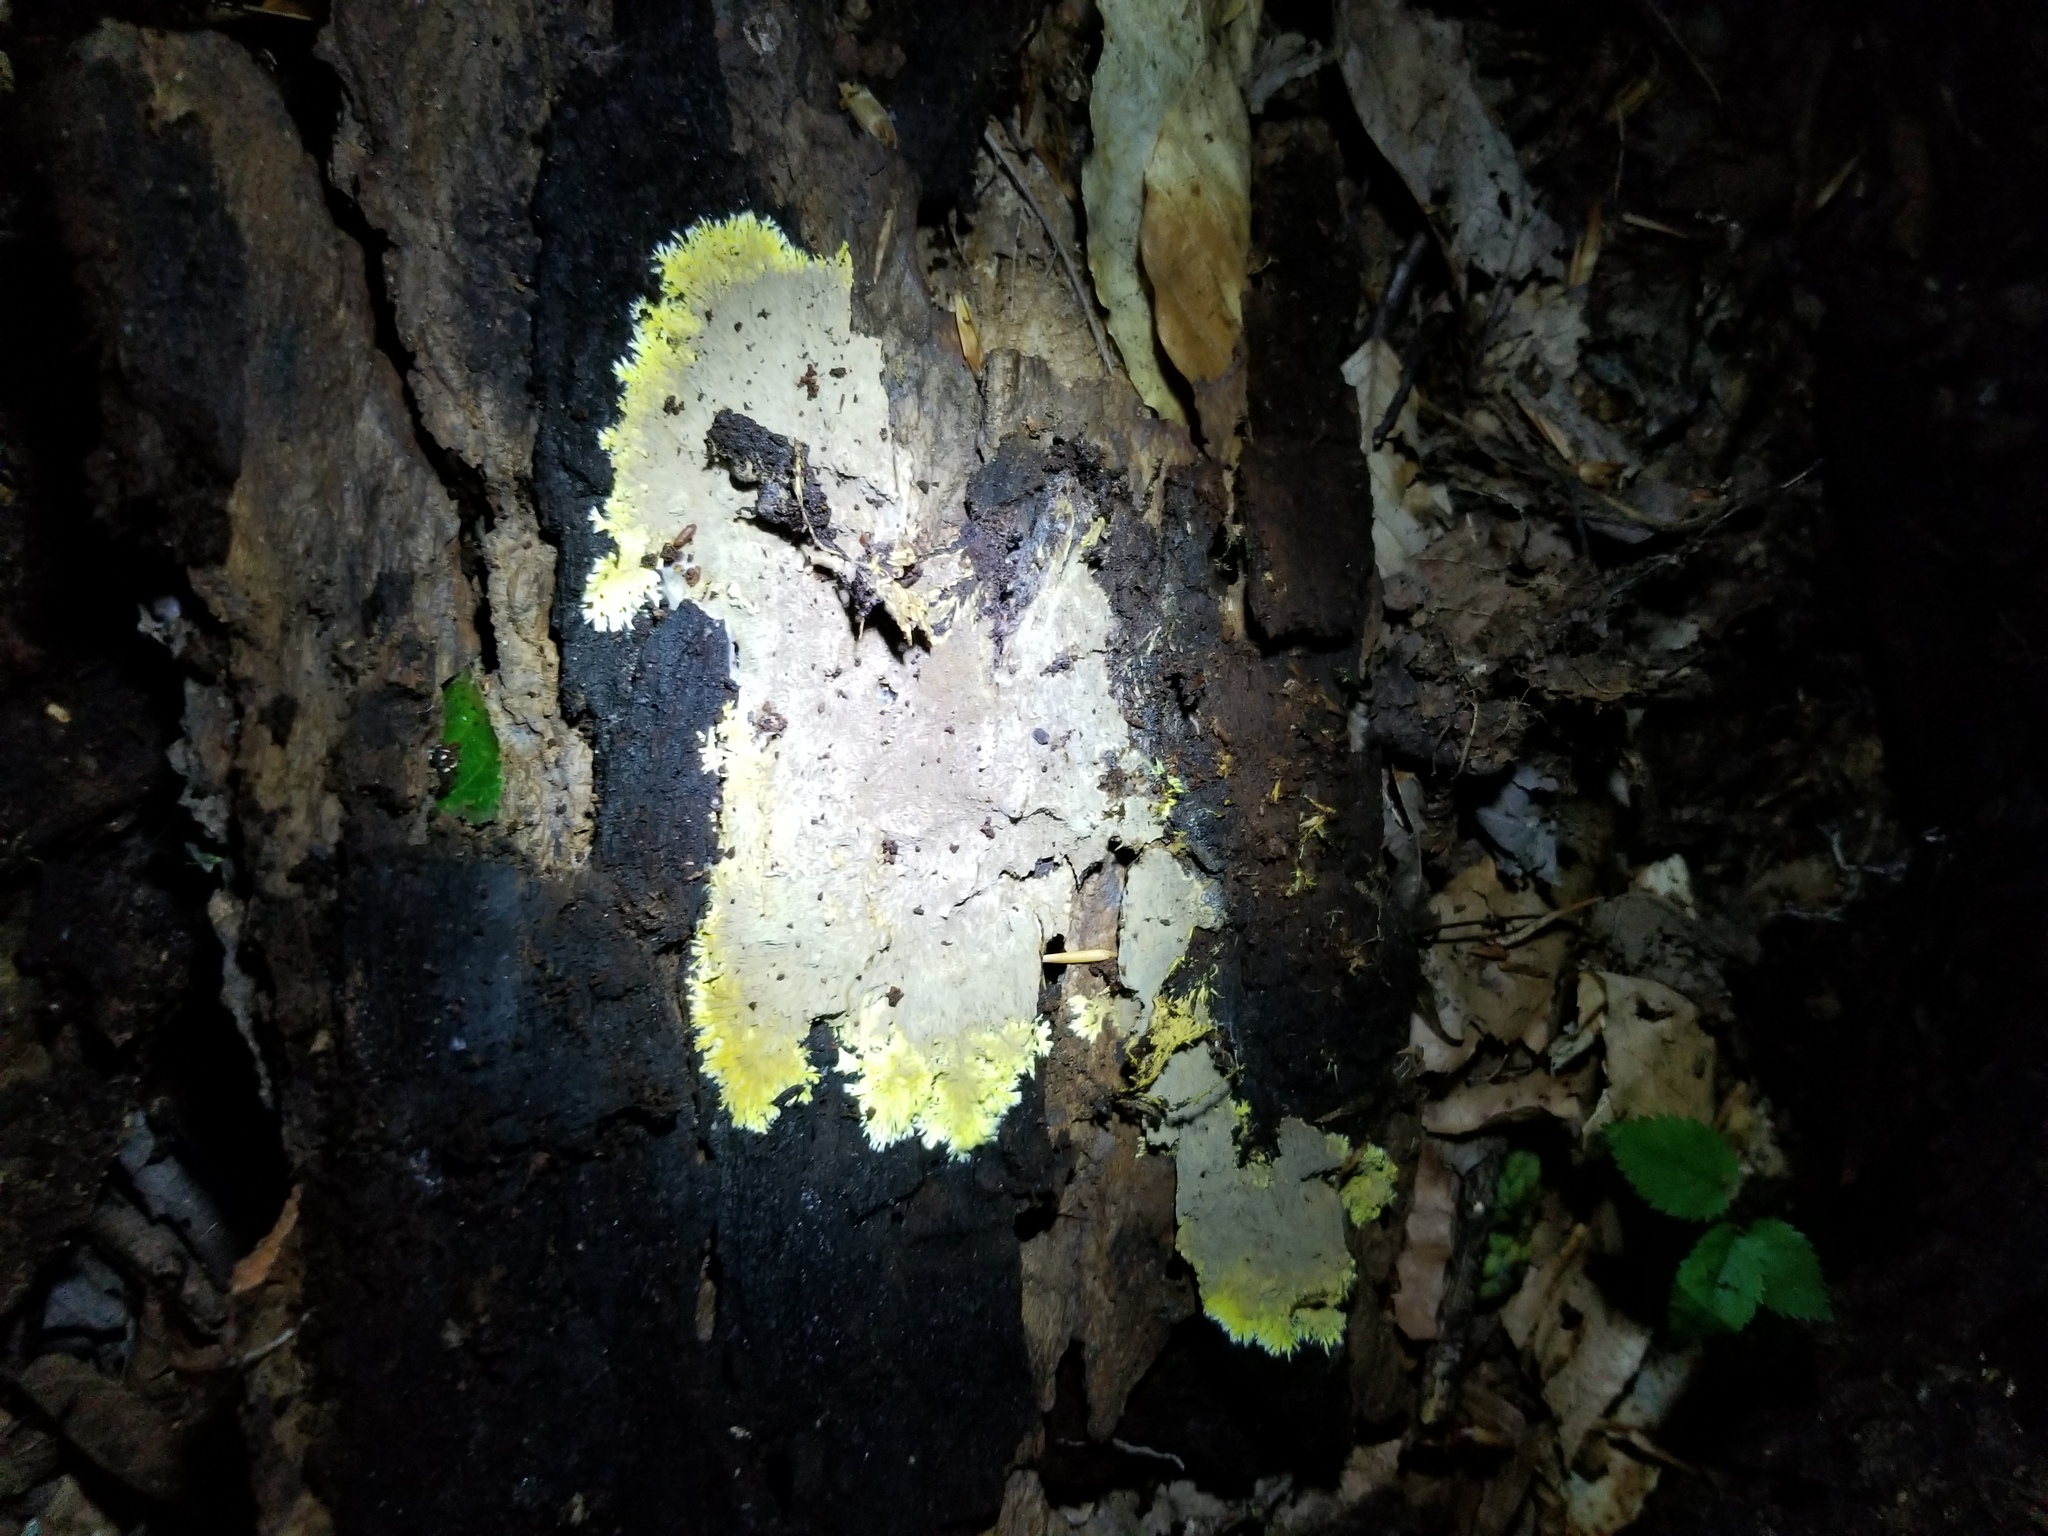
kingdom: Fungi
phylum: Basidiomycota
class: Agaricomycetes
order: Russulales
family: Xenasmataceae
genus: Xenasmatella
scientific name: Xenasmatella vaga
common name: Yellow cobweb
